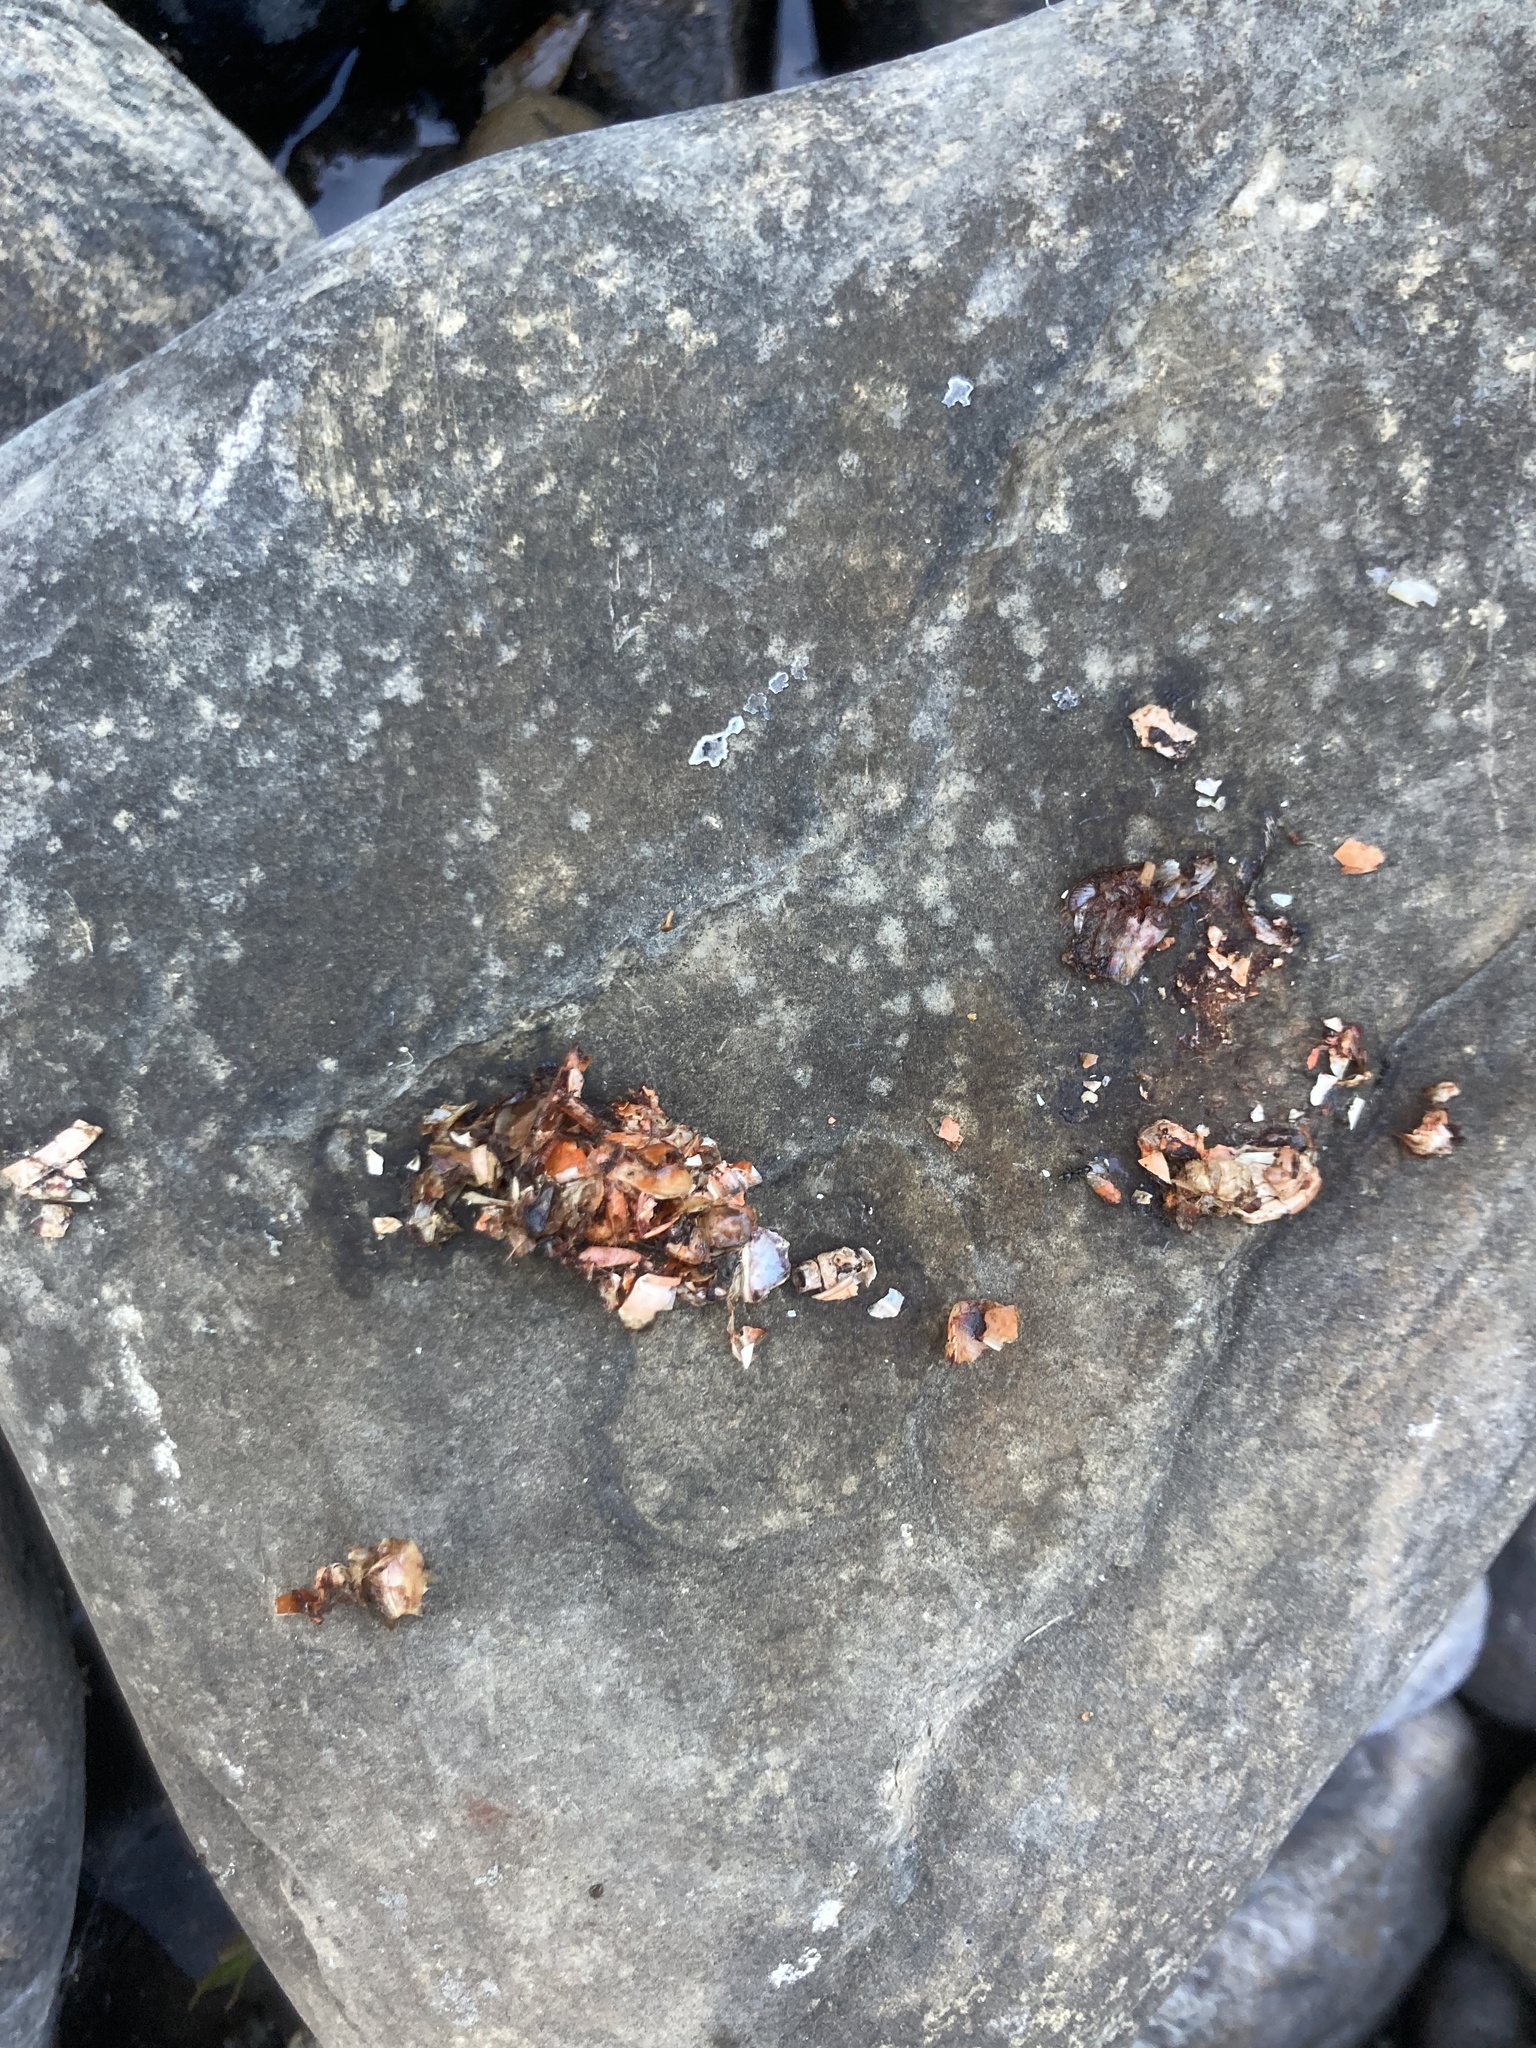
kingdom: Animalia
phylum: Chordata
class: Mammalia
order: Carnivora
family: Mustelidae
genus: Lutra
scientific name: Lutra lutra
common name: European otter
